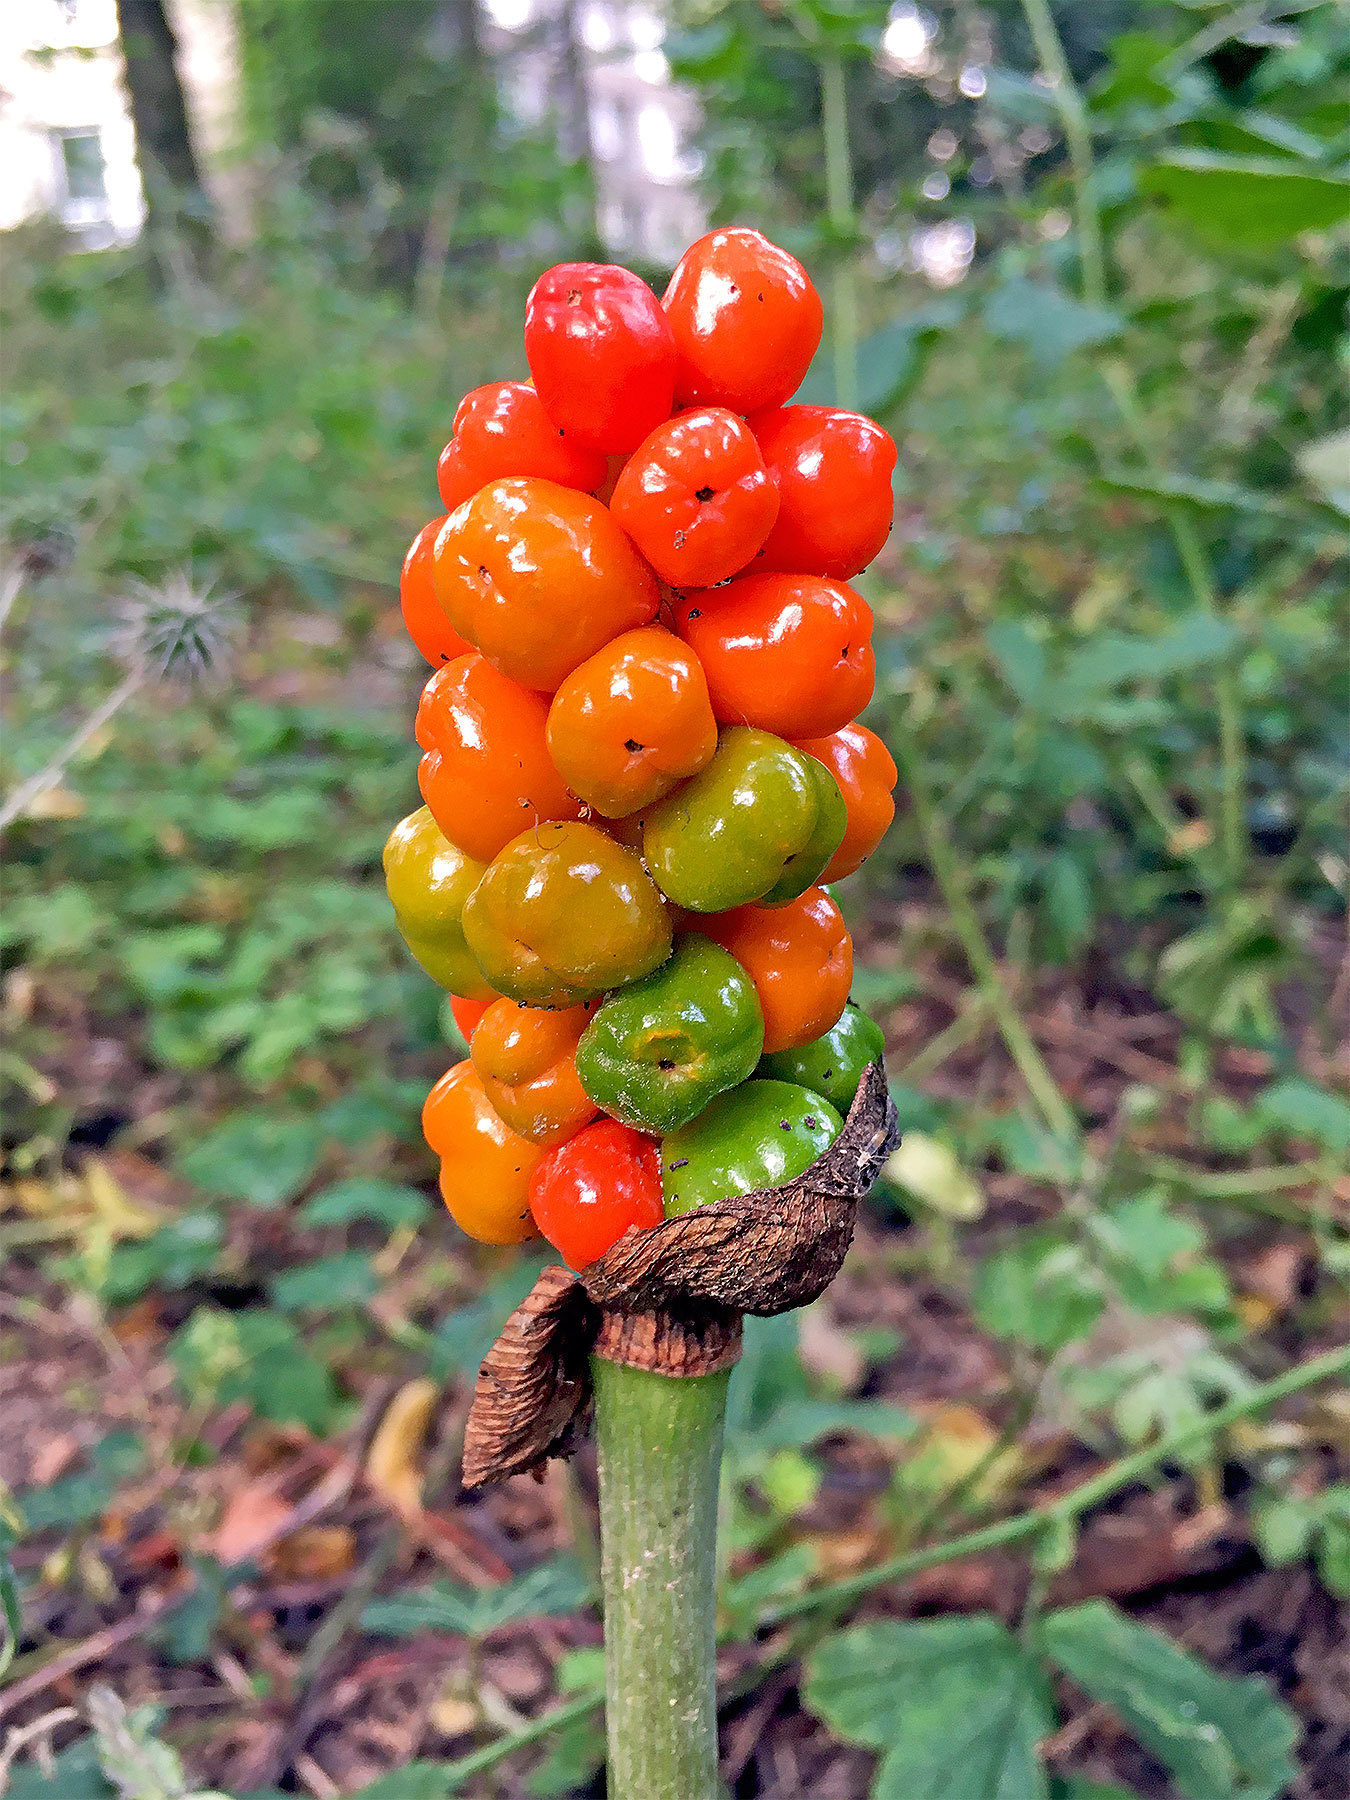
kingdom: Plantae
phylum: Tracheophyta
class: Liliopsida
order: Alismatales
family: Araceae
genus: Arum
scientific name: Arum
